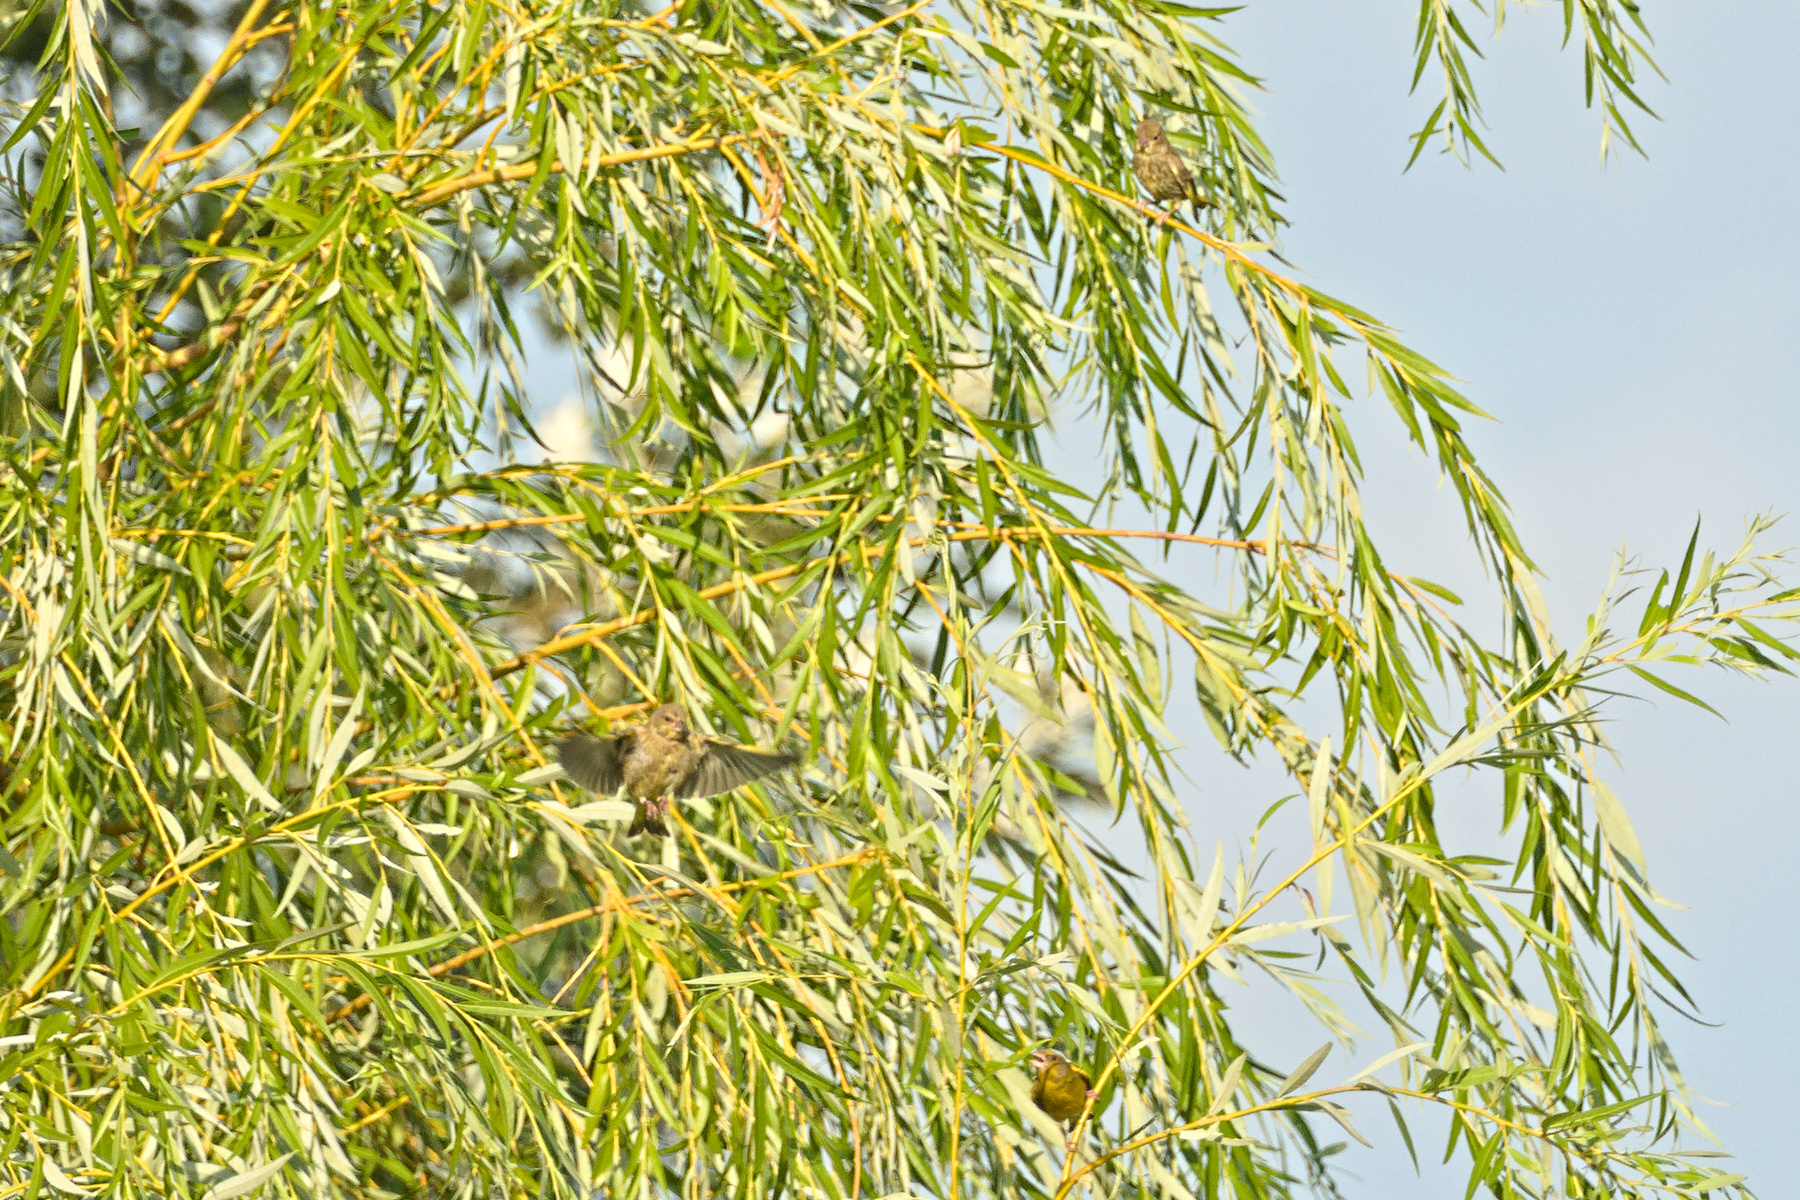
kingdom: Plantae
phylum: Tracheophyta
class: Liliopsida
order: Poales
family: Poaceae
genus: Chloris
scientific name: Chloris chloris
